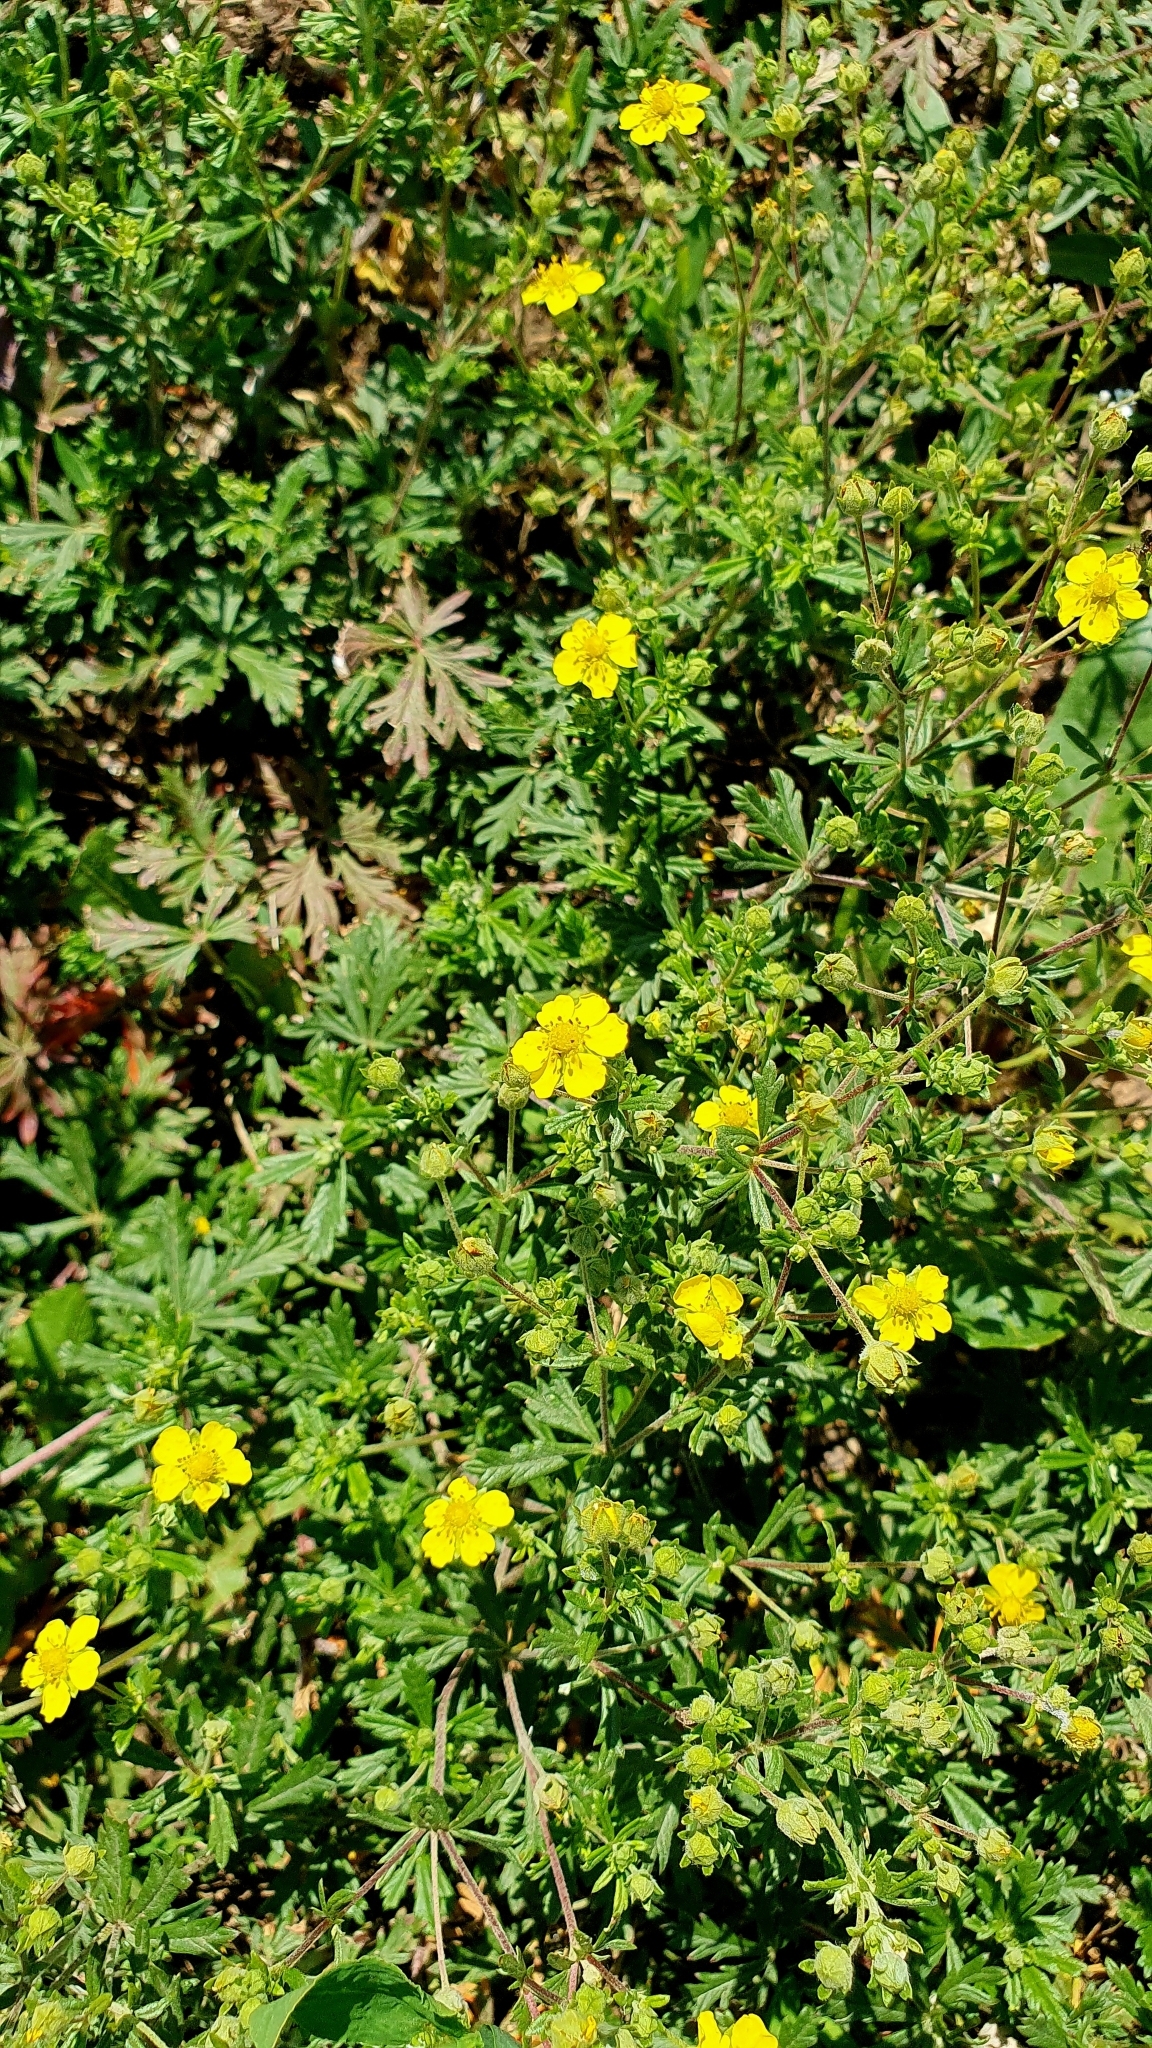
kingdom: Plantae
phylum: Tracheophyta
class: Magnoliopsida
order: Rosales
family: Rosaceae
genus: Potentilla
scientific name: Potentilla argentea
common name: Hoary cinquefoil
